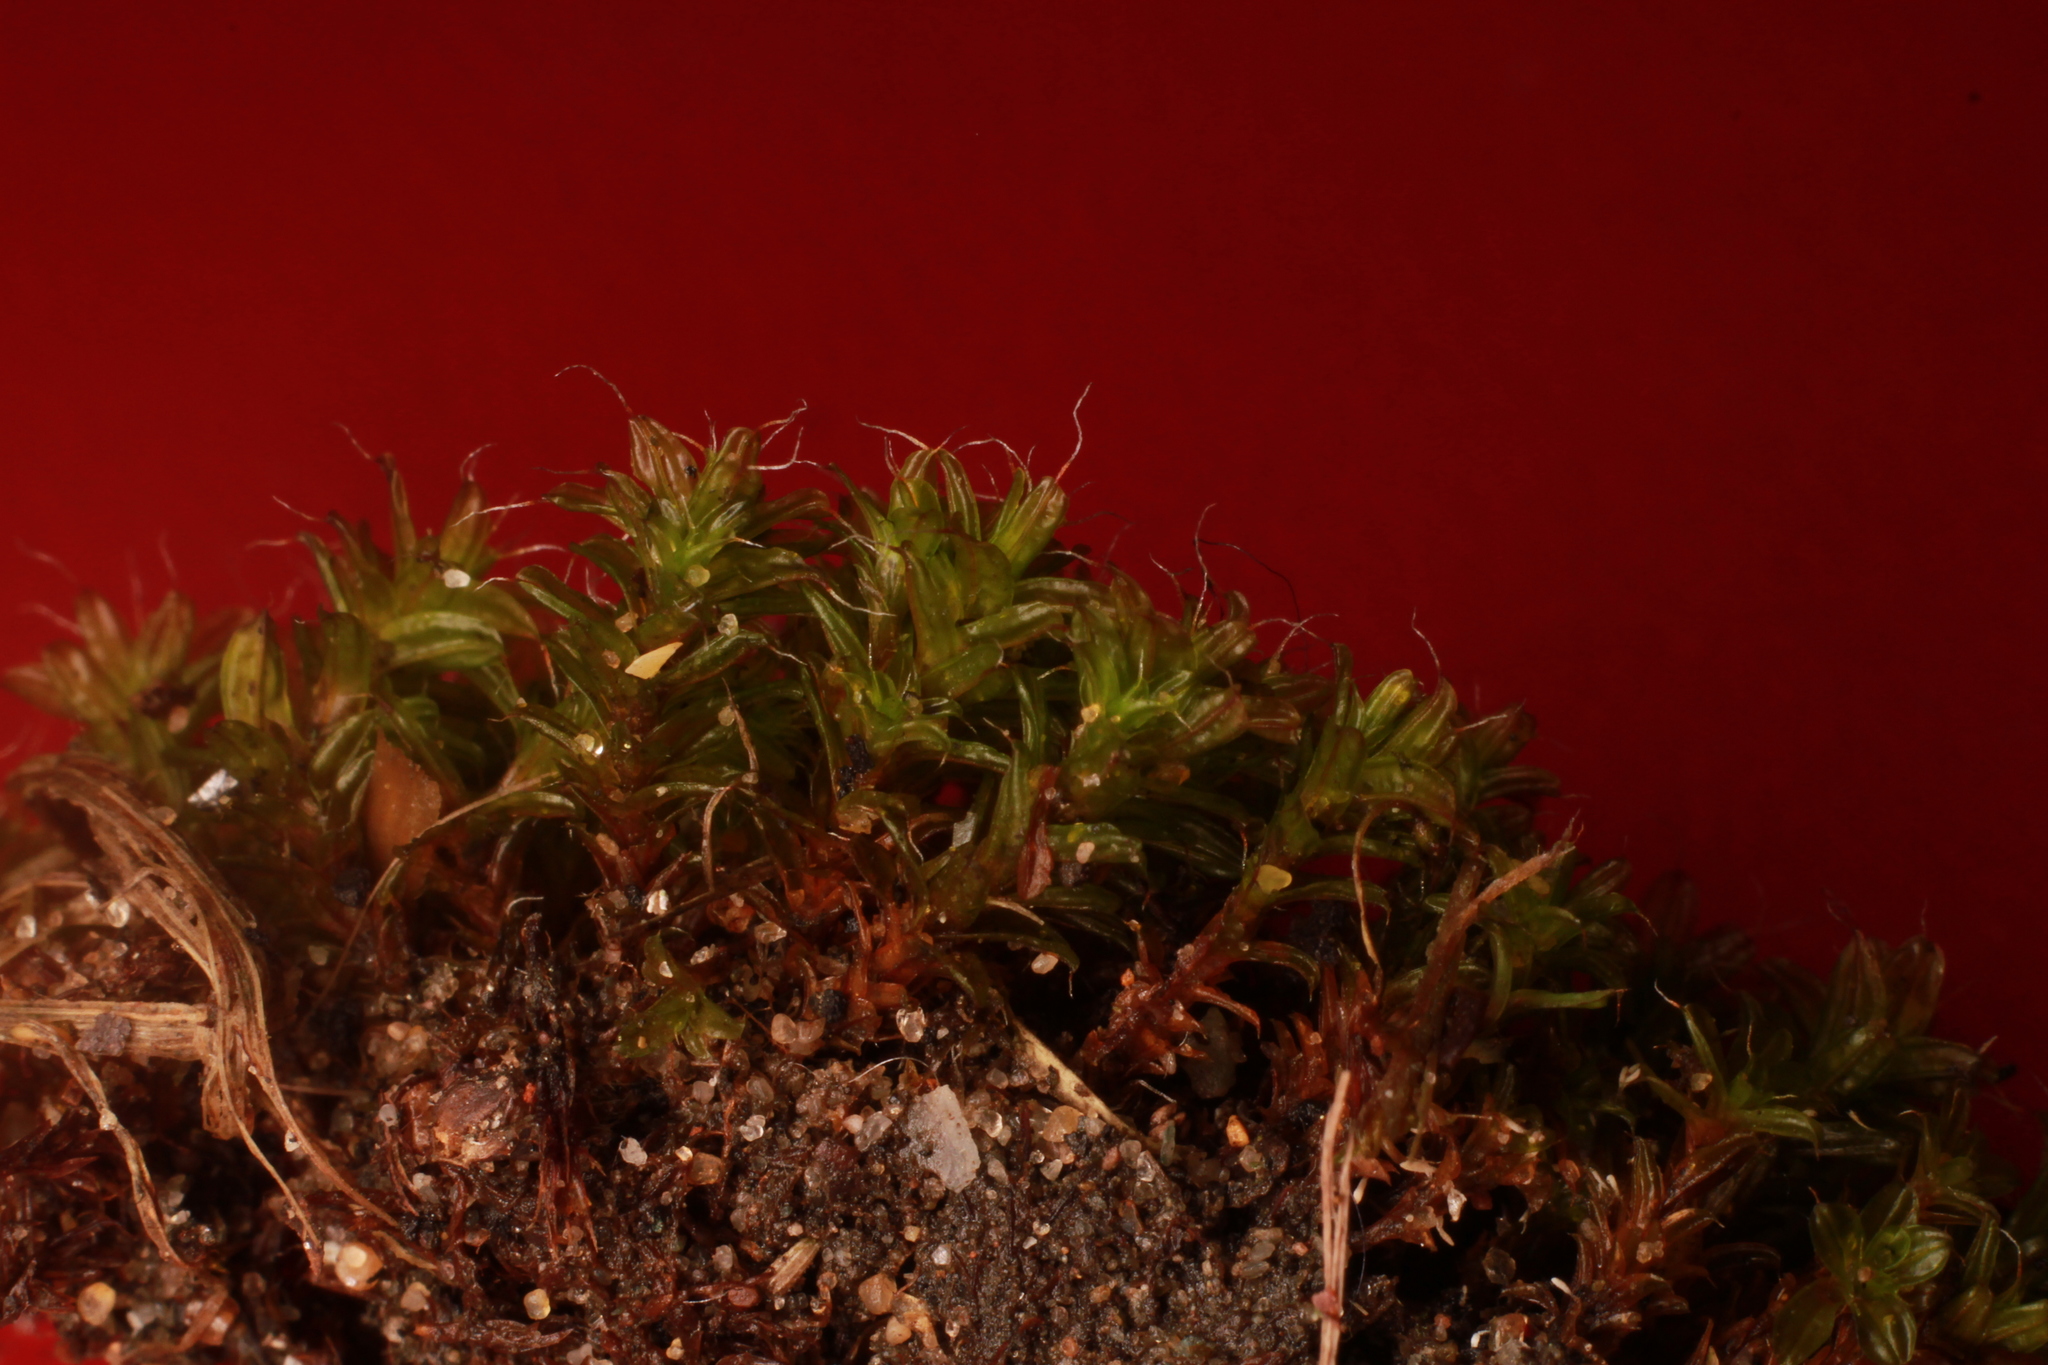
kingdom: Plantae
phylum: Bryophyta
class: Bryopsida
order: Pottiales
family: Pottiaceae
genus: Syntrichia
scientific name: Syntrichia ruralis
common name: Sidewalk screw moss
